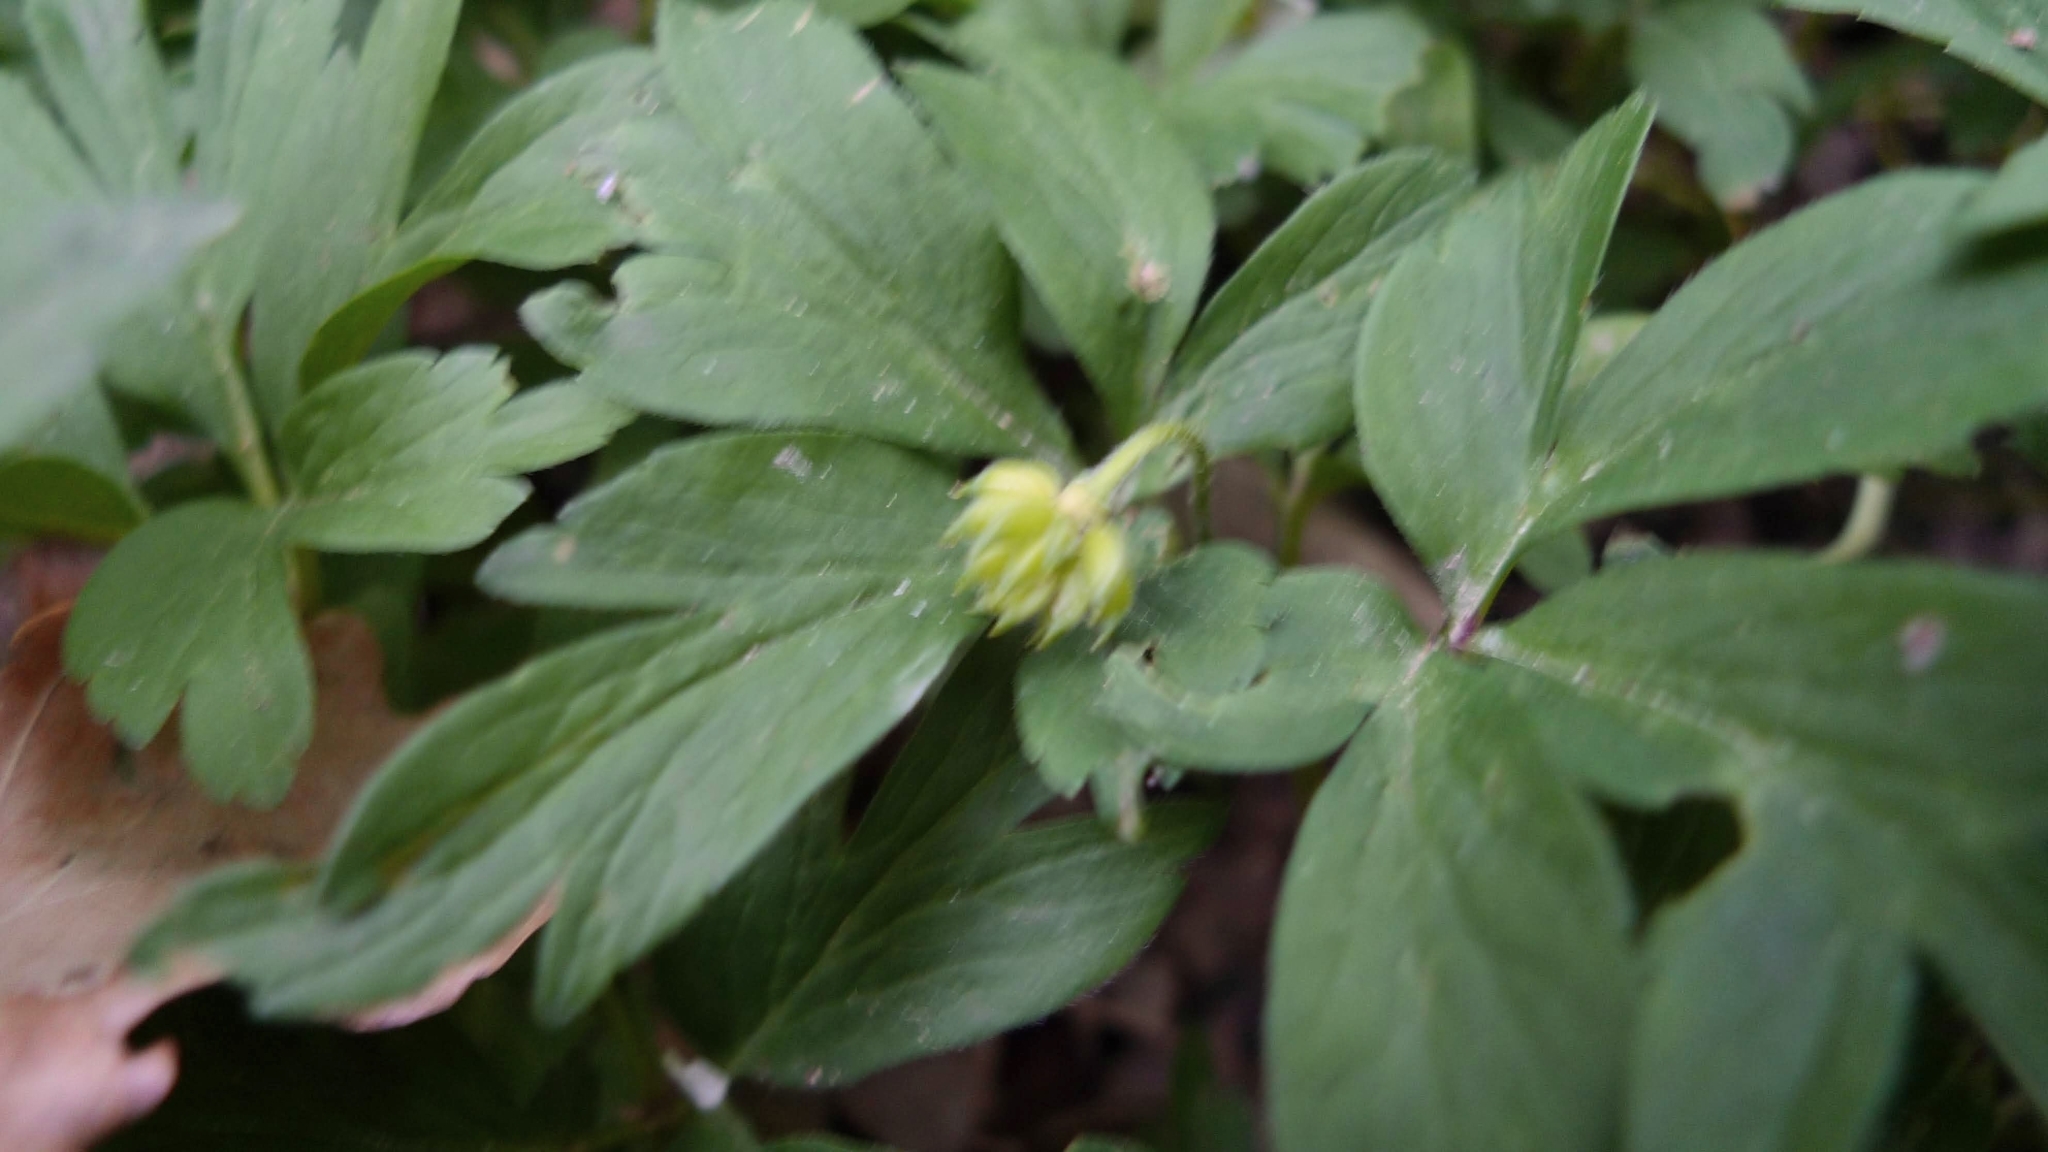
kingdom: Plantae
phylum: Tracheophyta
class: Magnoliopsida
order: Ranunculales
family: Ranunculaceae
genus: Anemone
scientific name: Anemone nemorosa
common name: Wood anemone
